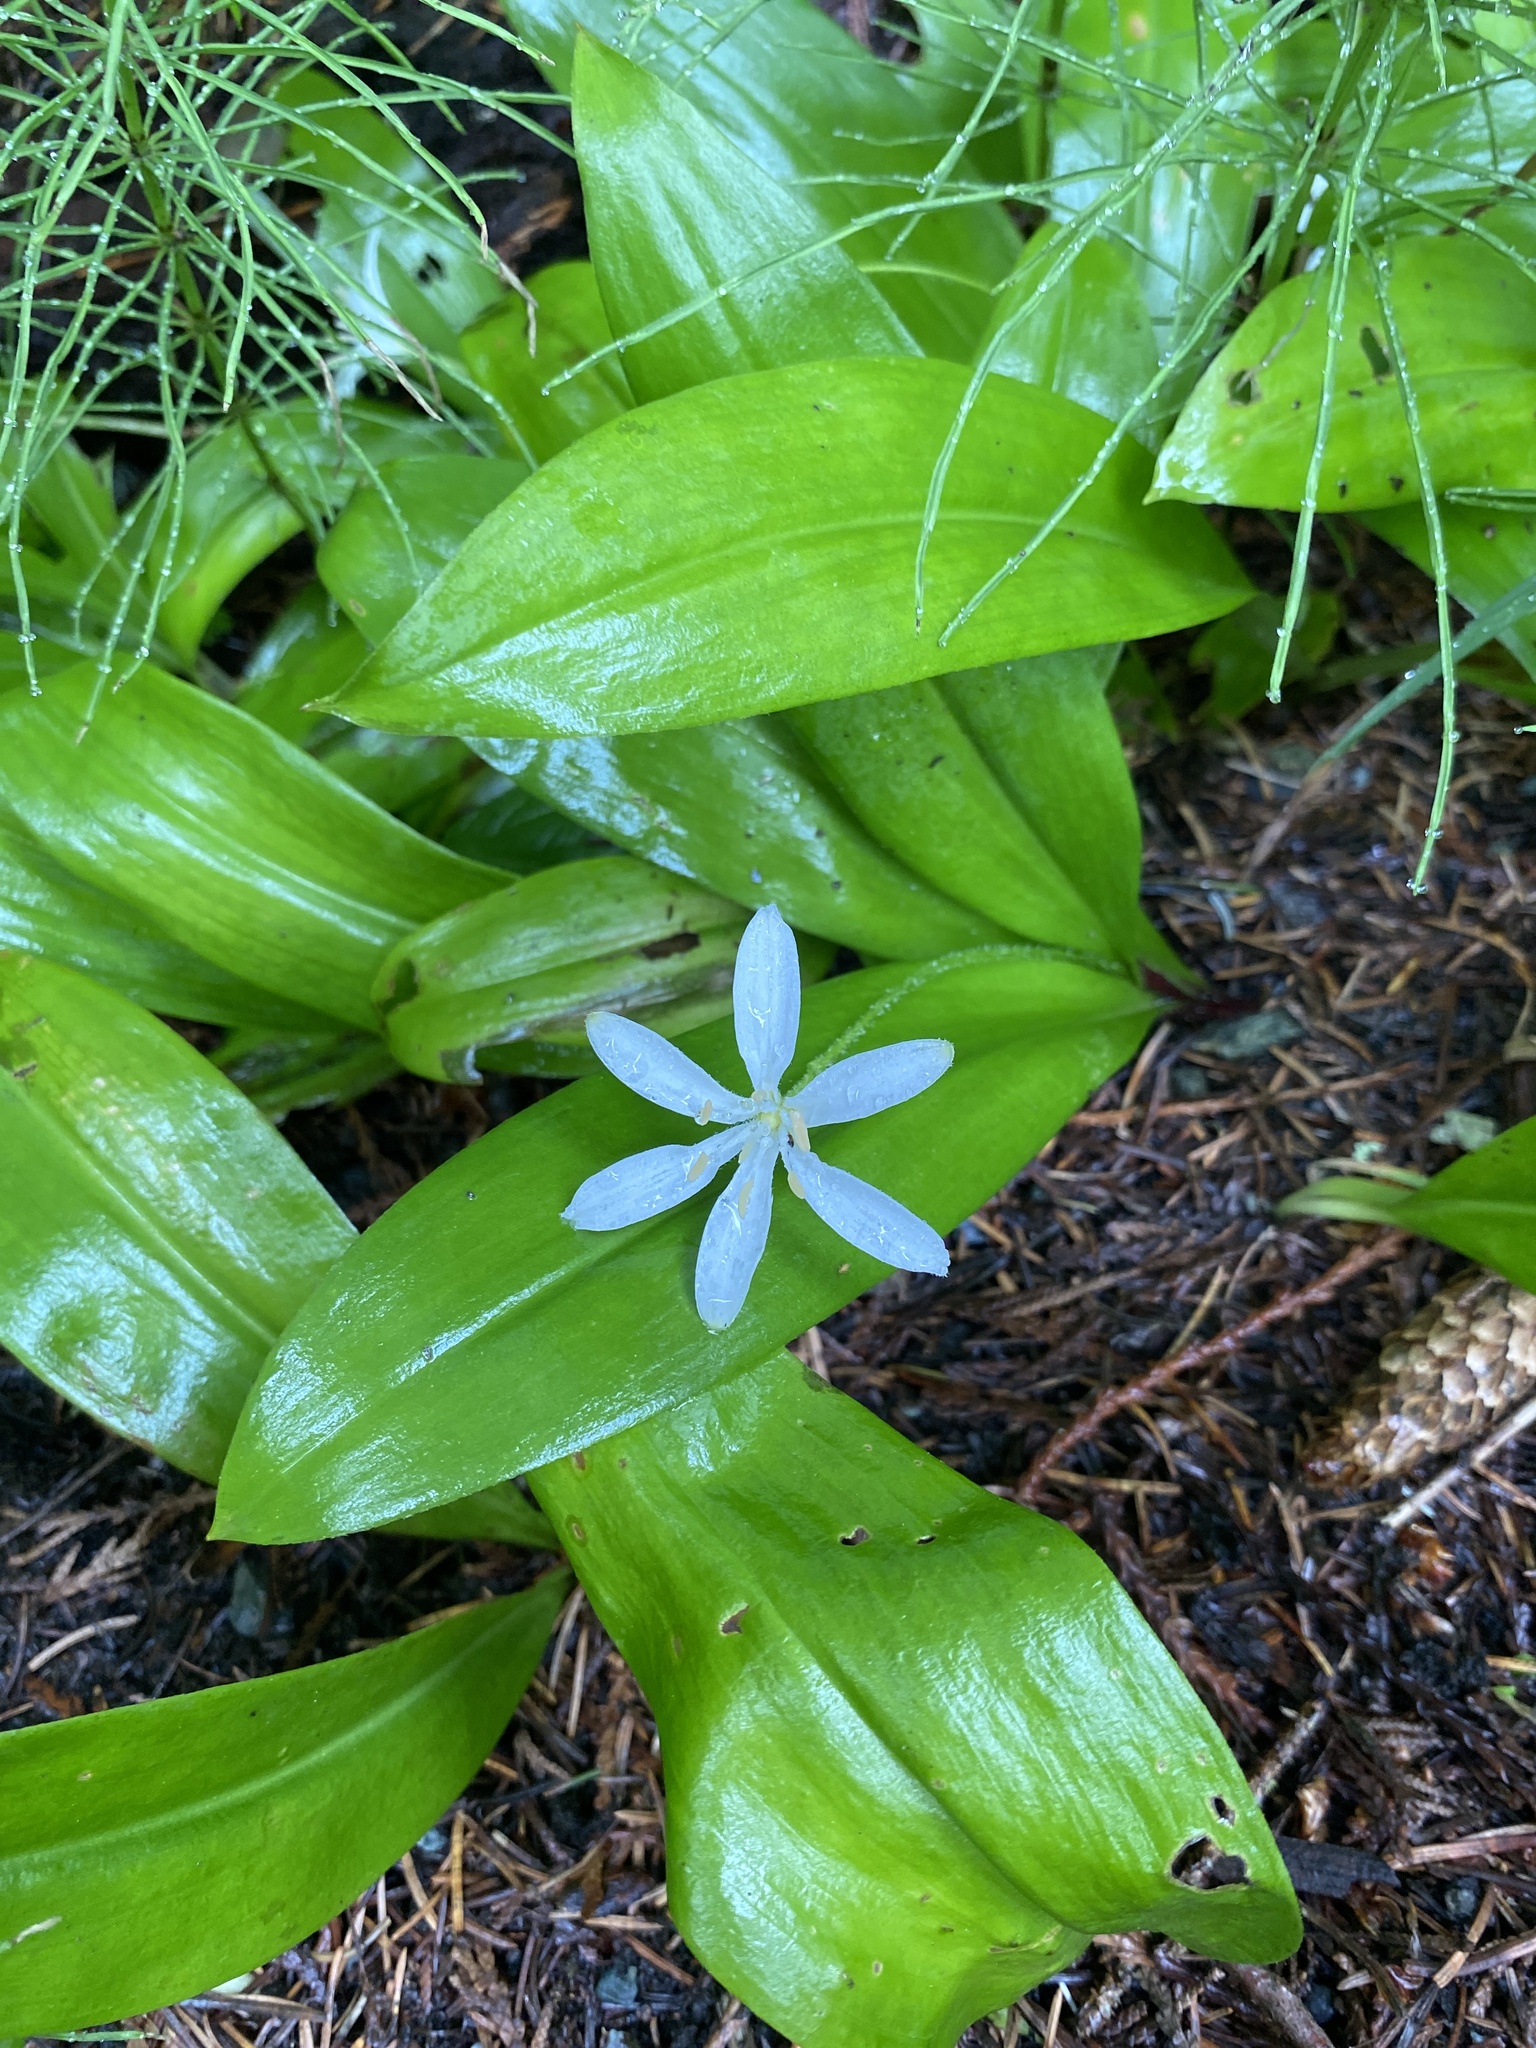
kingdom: Plantae
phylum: Tracheophyta
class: Liliopsida
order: Liliales
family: Liliaceae
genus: Clintonia
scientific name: Clintonia uniflora
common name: Queen's cup
